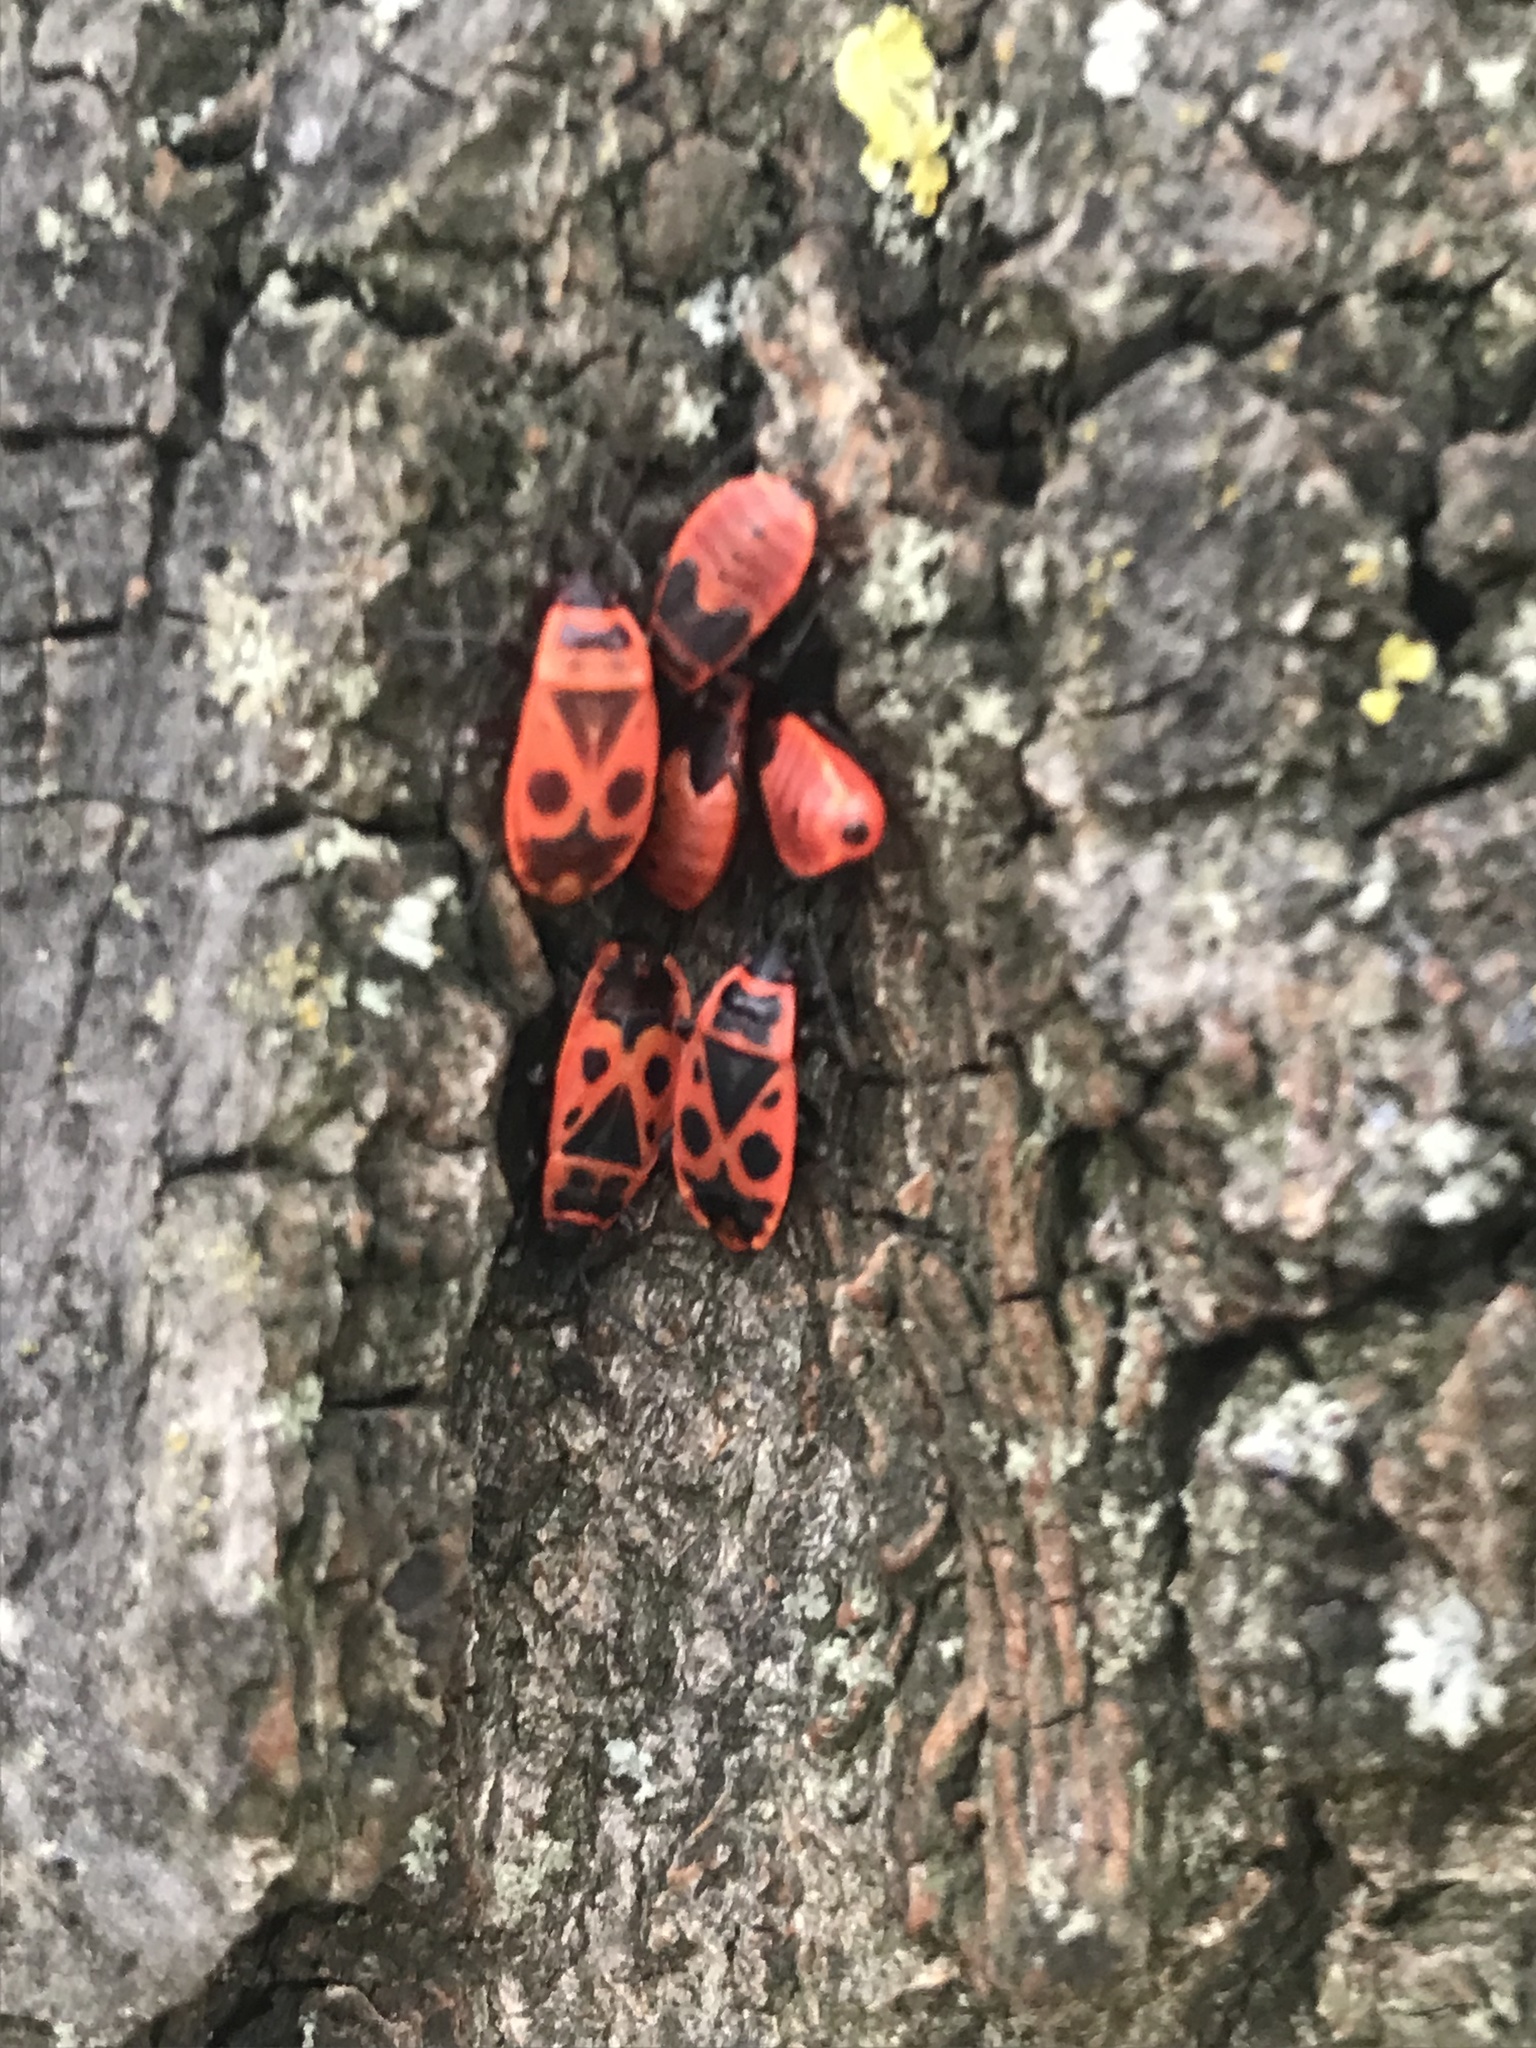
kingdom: Animalia
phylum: Arthropoda
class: Insecta
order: Hemiptera
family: Pyrrhocoridae
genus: Pyrrhocoris
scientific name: Pyrrhocoris apterus
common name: Firebug
